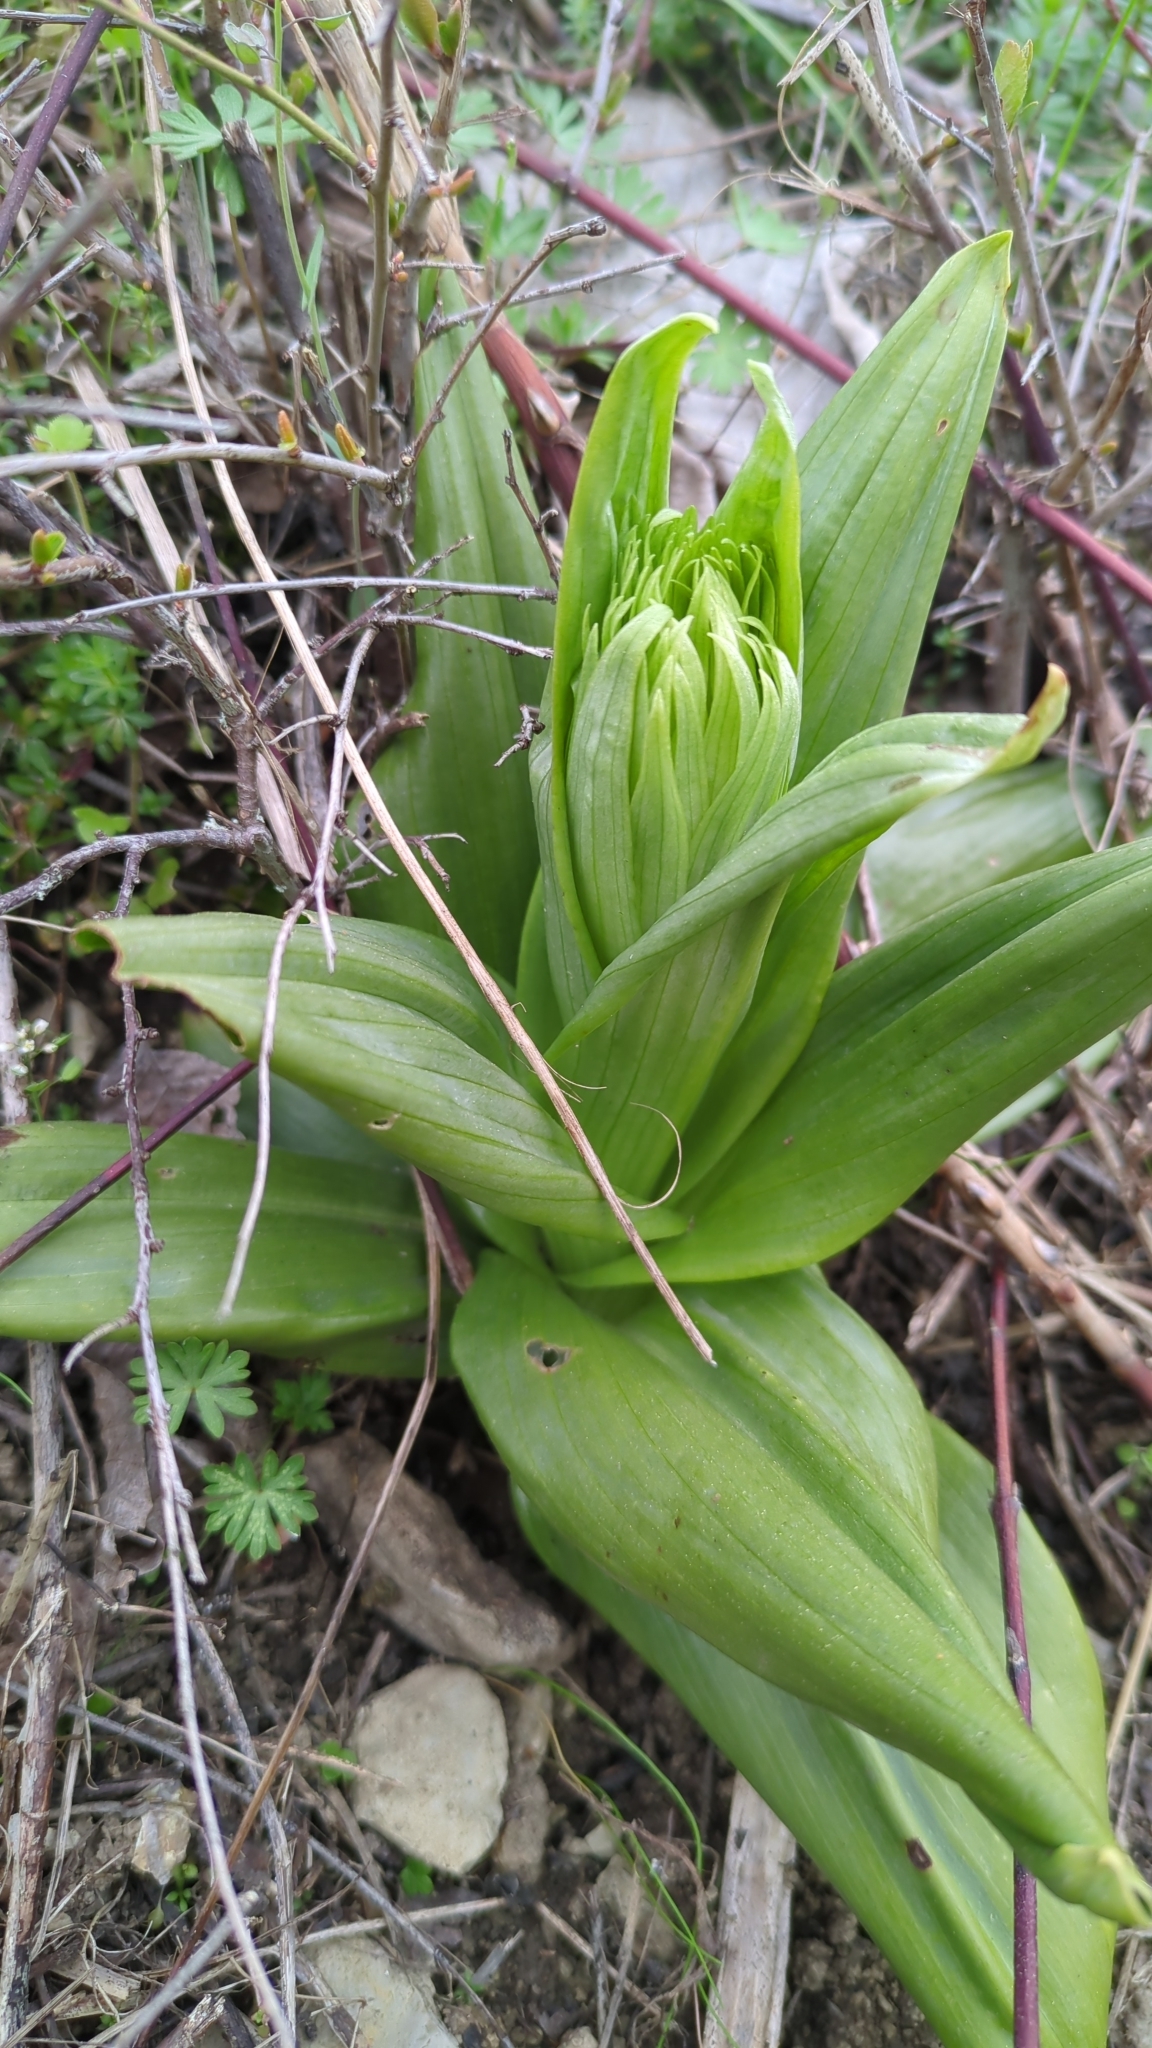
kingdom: Plantae
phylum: Tracheophyta
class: Liliopsida
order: Asparagales
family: Orchidaceae
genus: Himantoglossum
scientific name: Himantoglossum hircinum
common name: Lizard orchid
